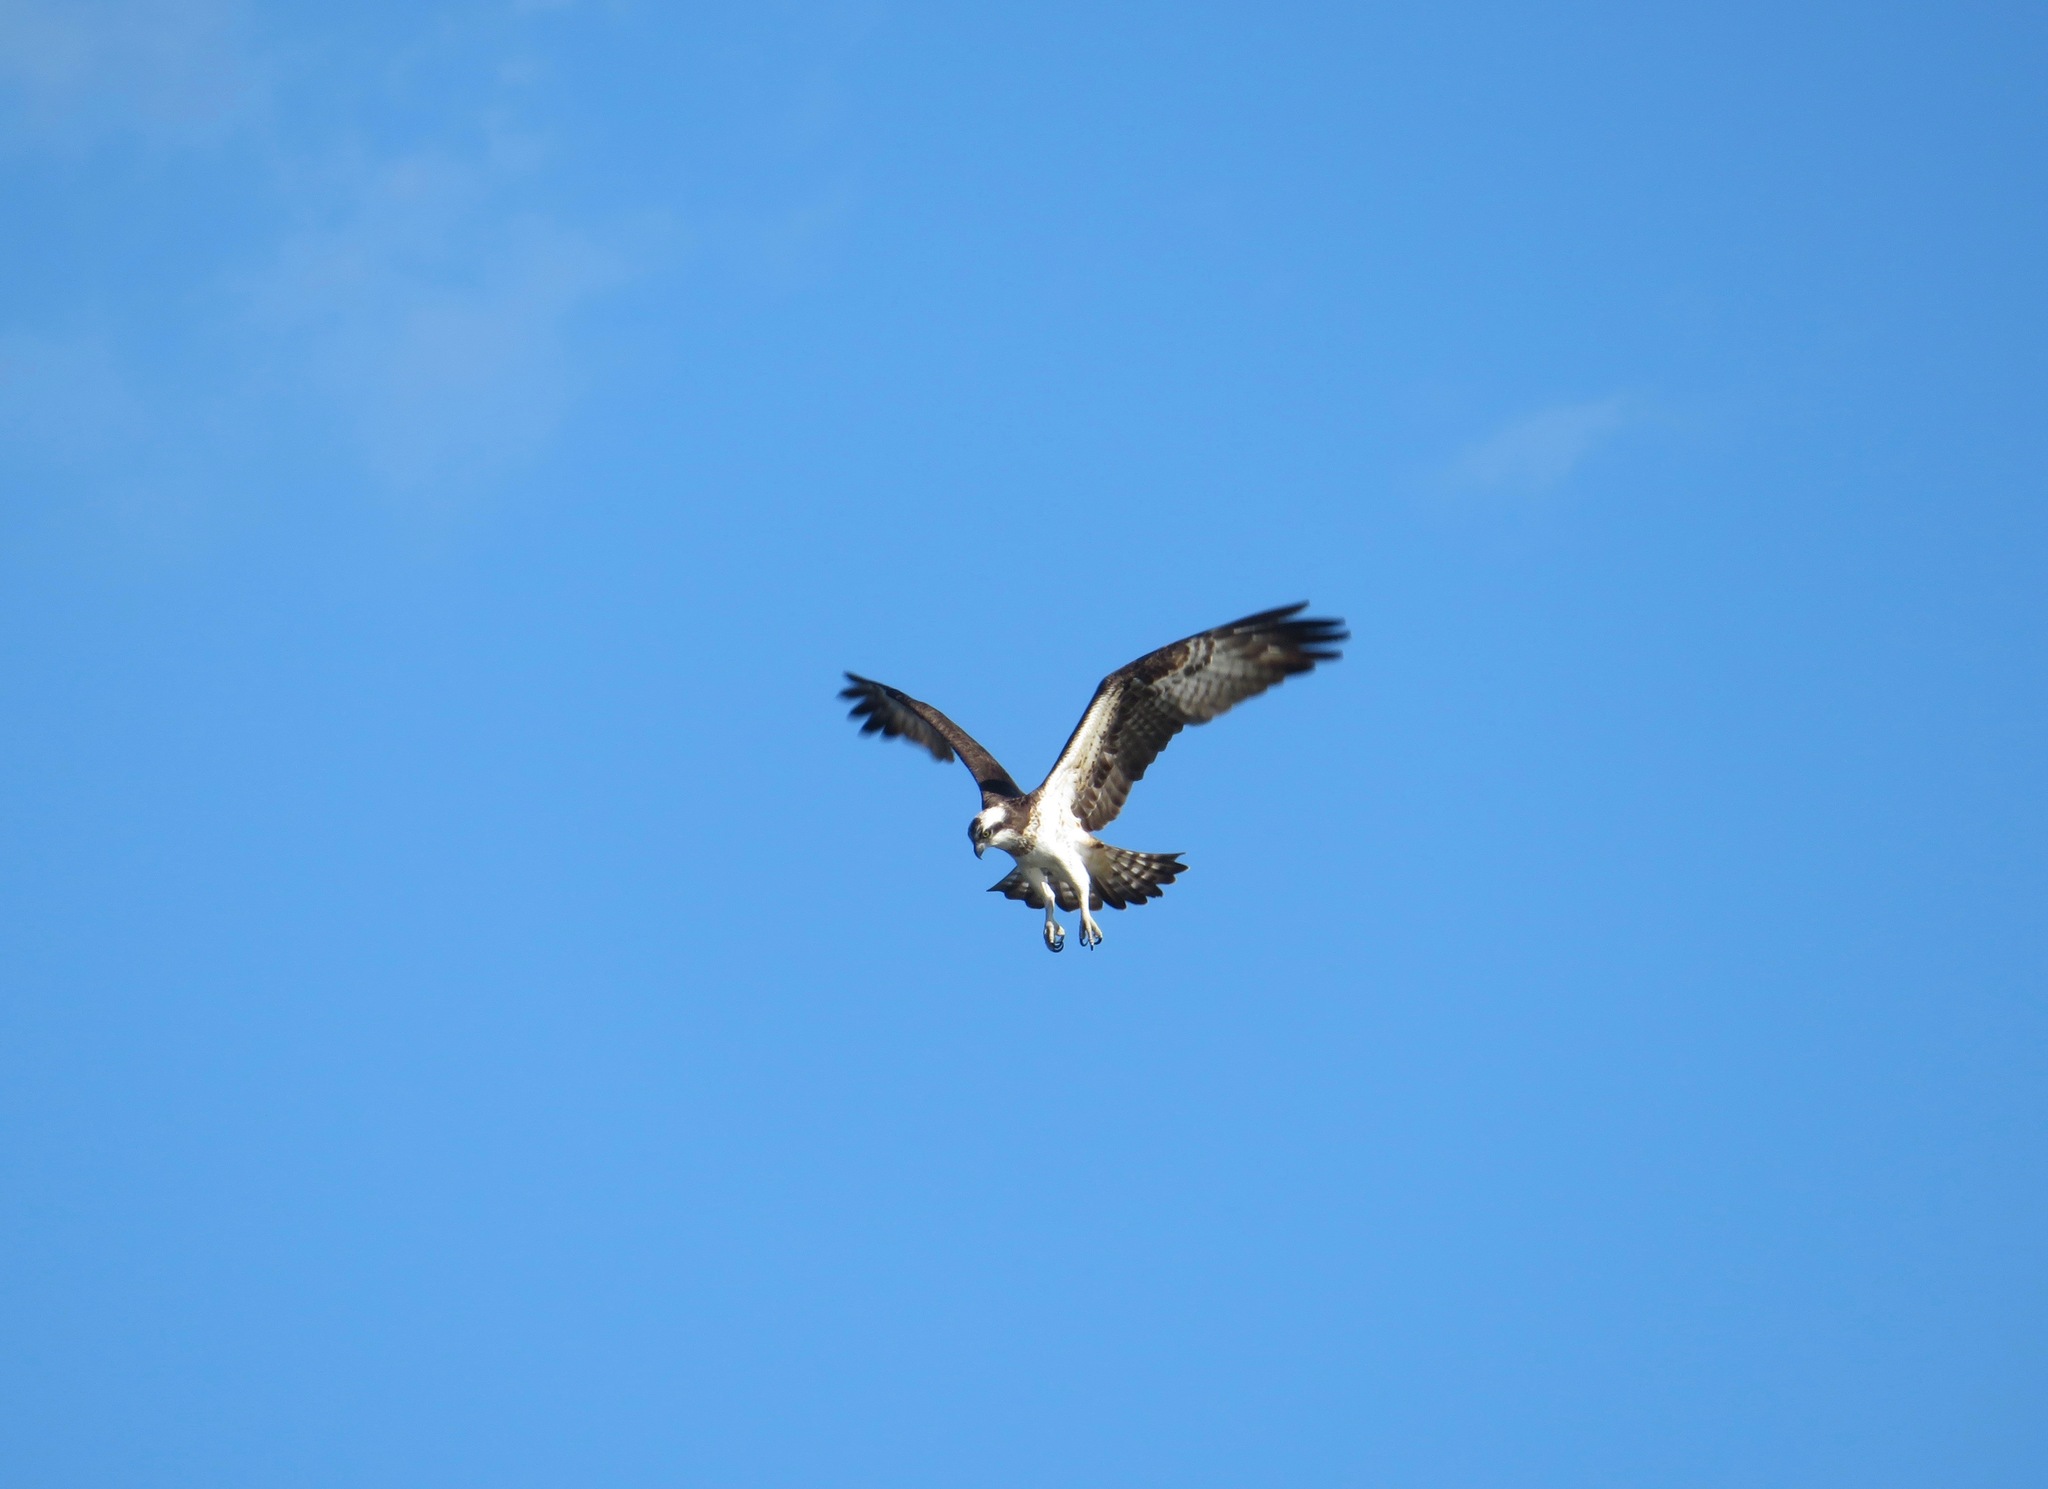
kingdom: Animalia
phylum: Chordata
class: Aves
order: Accipitriformes
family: Pandionidae
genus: Pandion
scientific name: Pandion haliaetus
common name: Osprey
